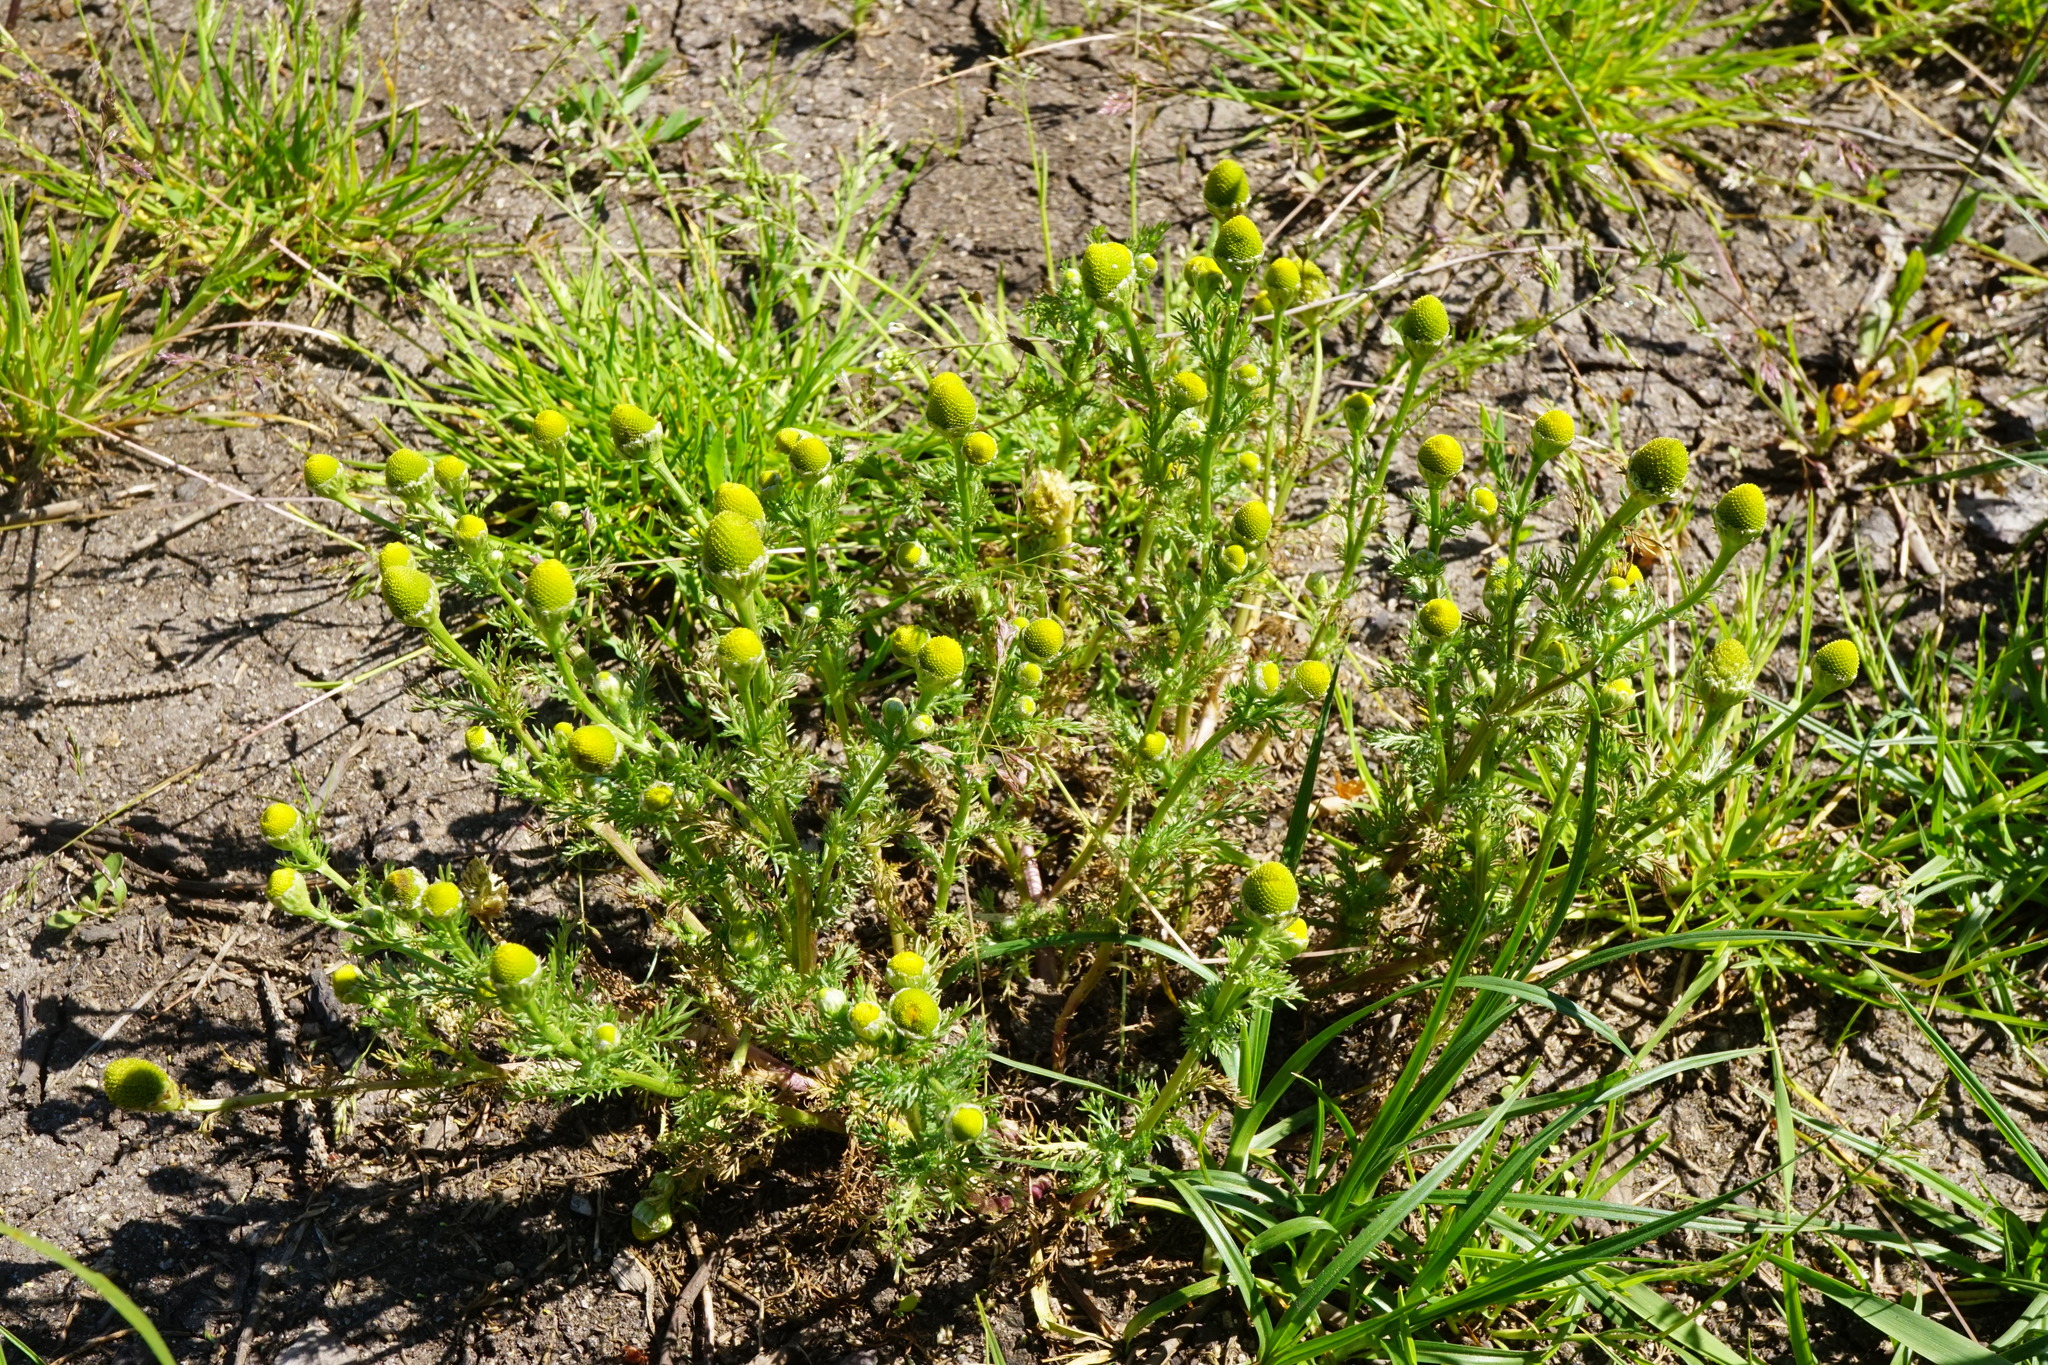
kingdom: Plantae
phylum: Tracheophyta
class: Magnoliopsida
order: Asterales
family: Asteraceae
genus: Matricaria
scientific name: Matricaria discoidea
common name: Disc mayweed
